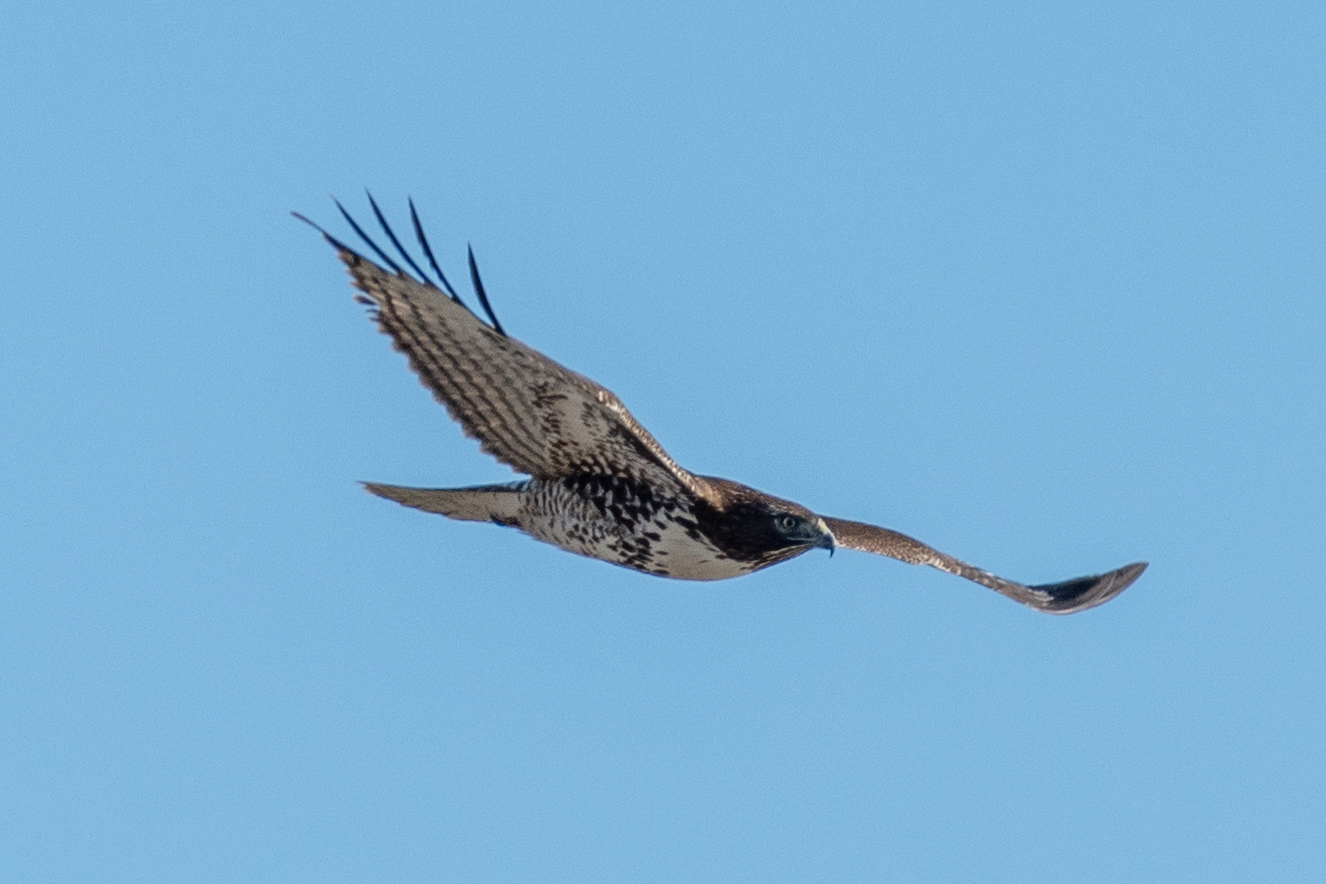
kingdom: Animalia
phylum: Chordata
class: Aves
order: Accipitriformes
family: Accipitridae
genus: Buteo
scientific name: Buteo jamaicensis
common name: Red-tailed hawk
